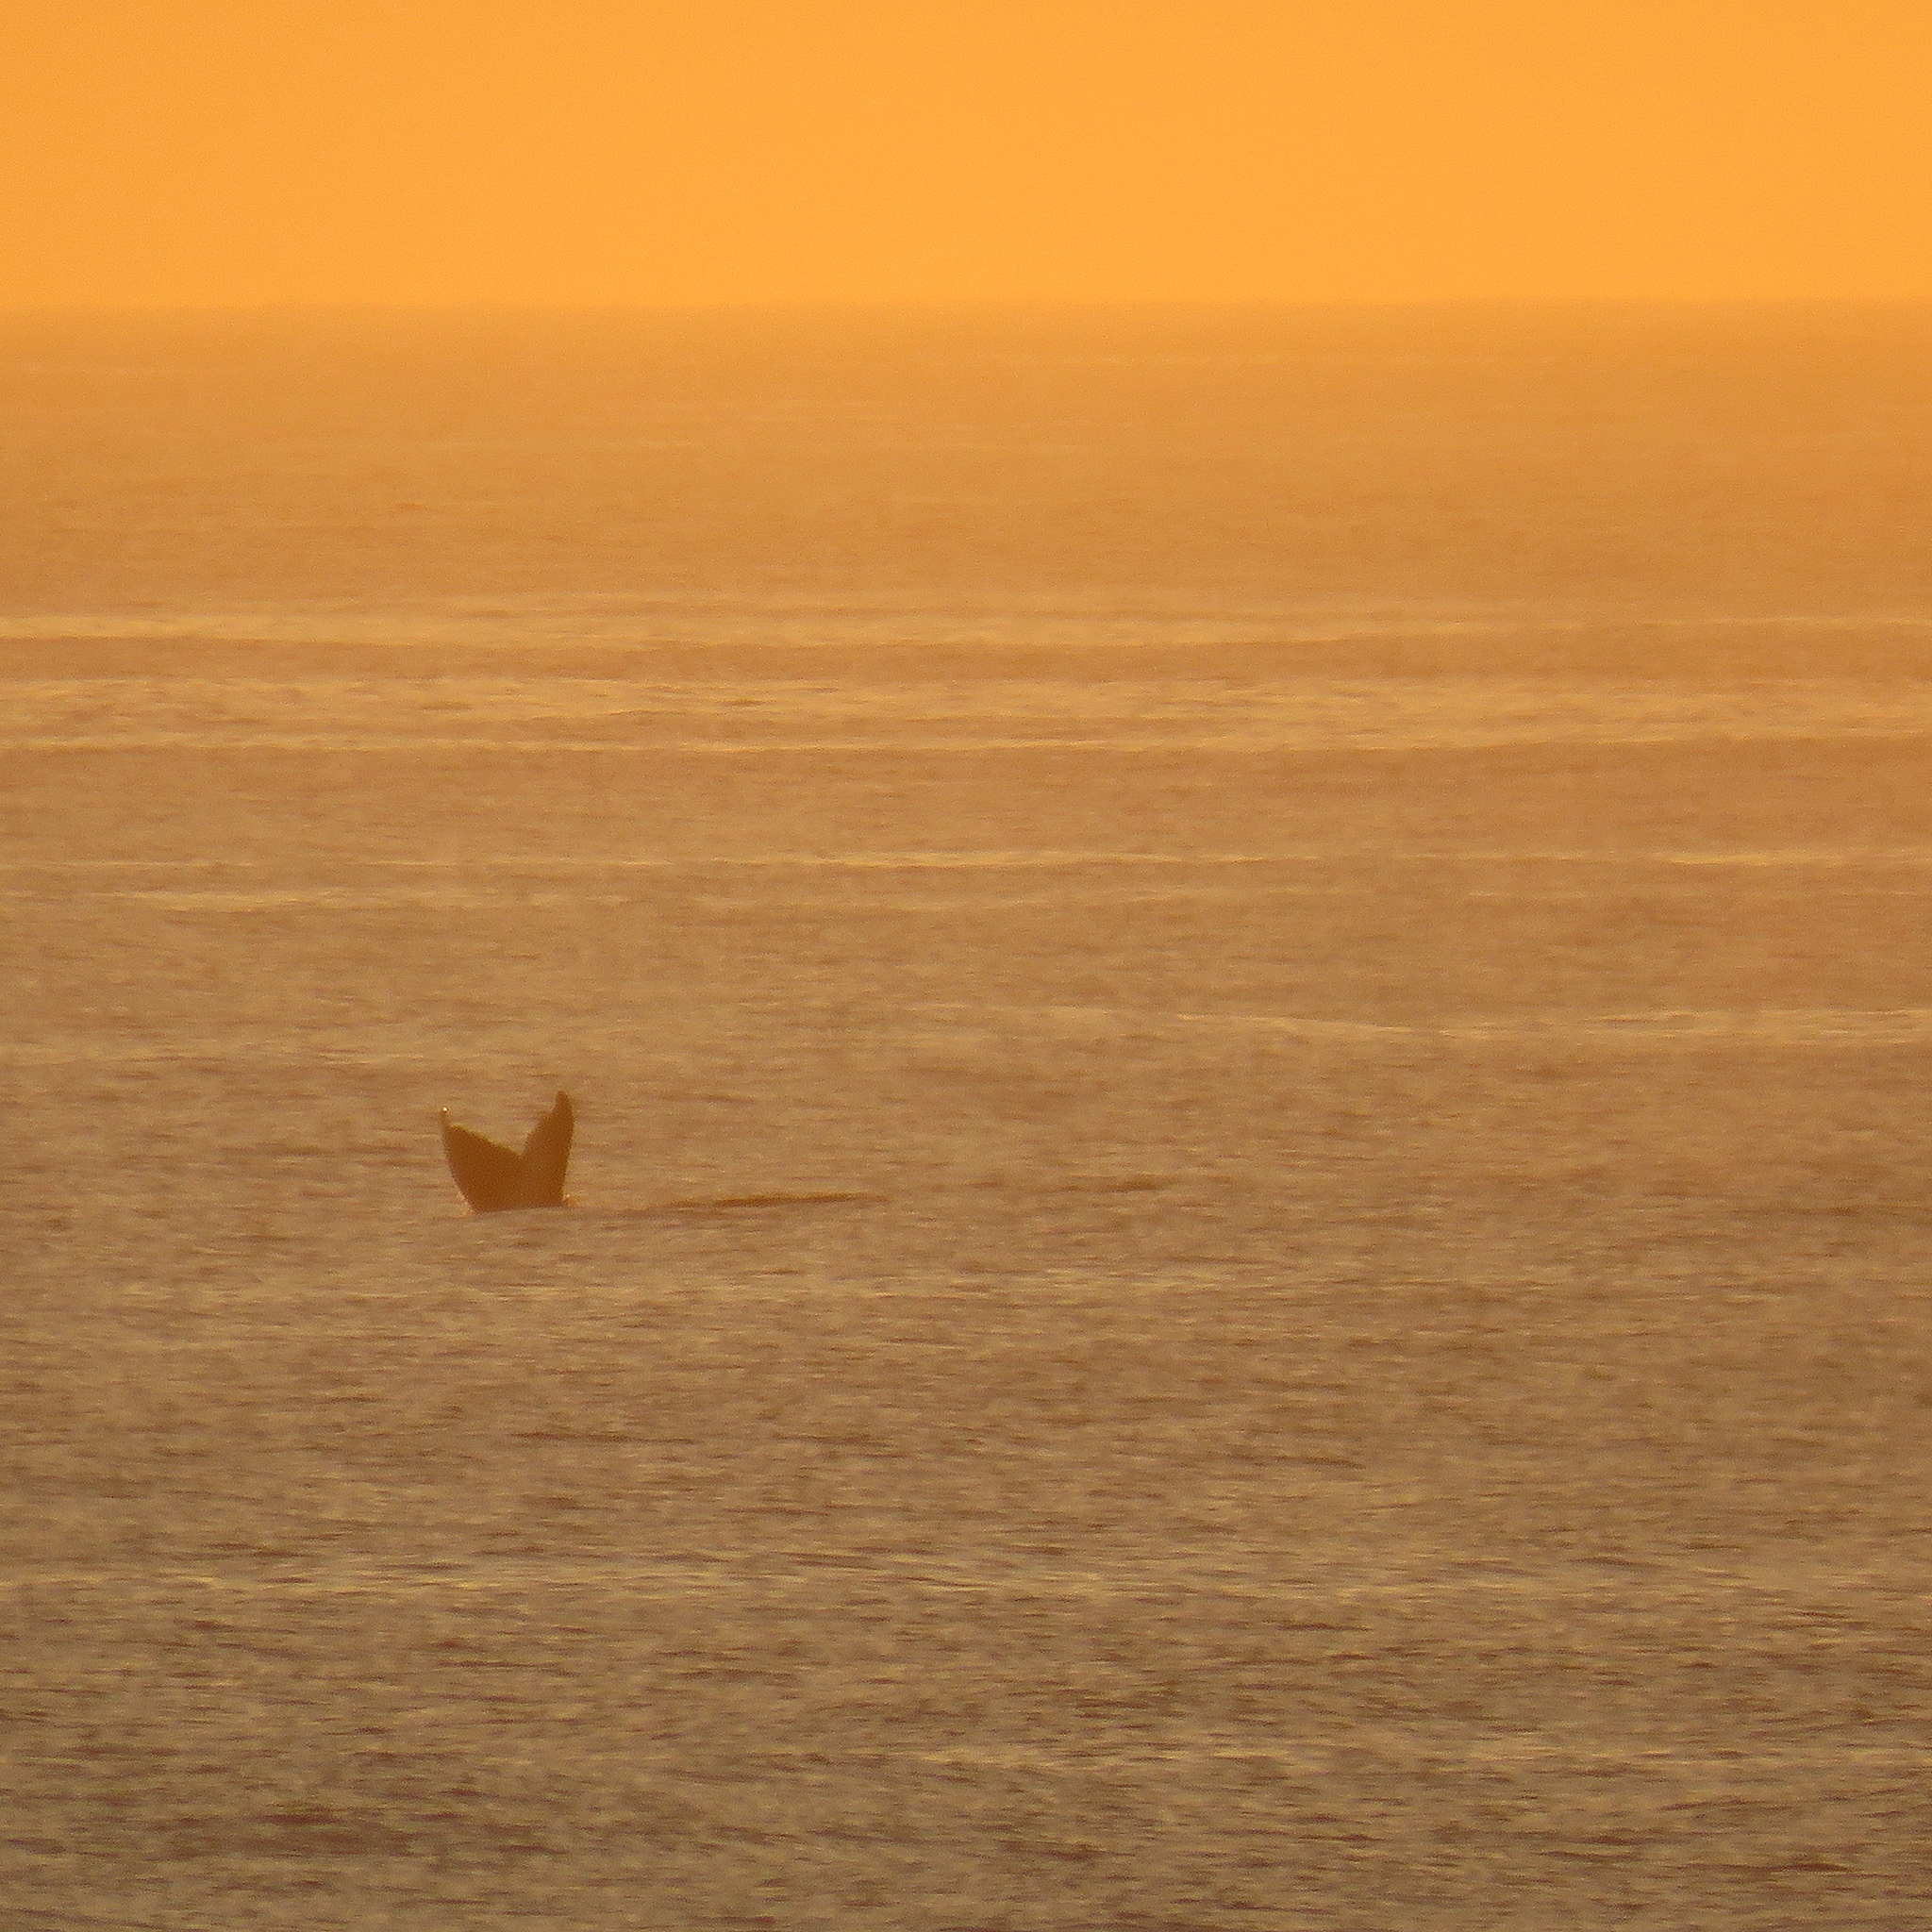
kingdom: Animalia
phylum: Chordata
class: Mammalia
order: Cetacea
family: Balaenopteridae
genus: Megaptera
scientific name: Megaptera novaeangliae
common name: Humpback whale
